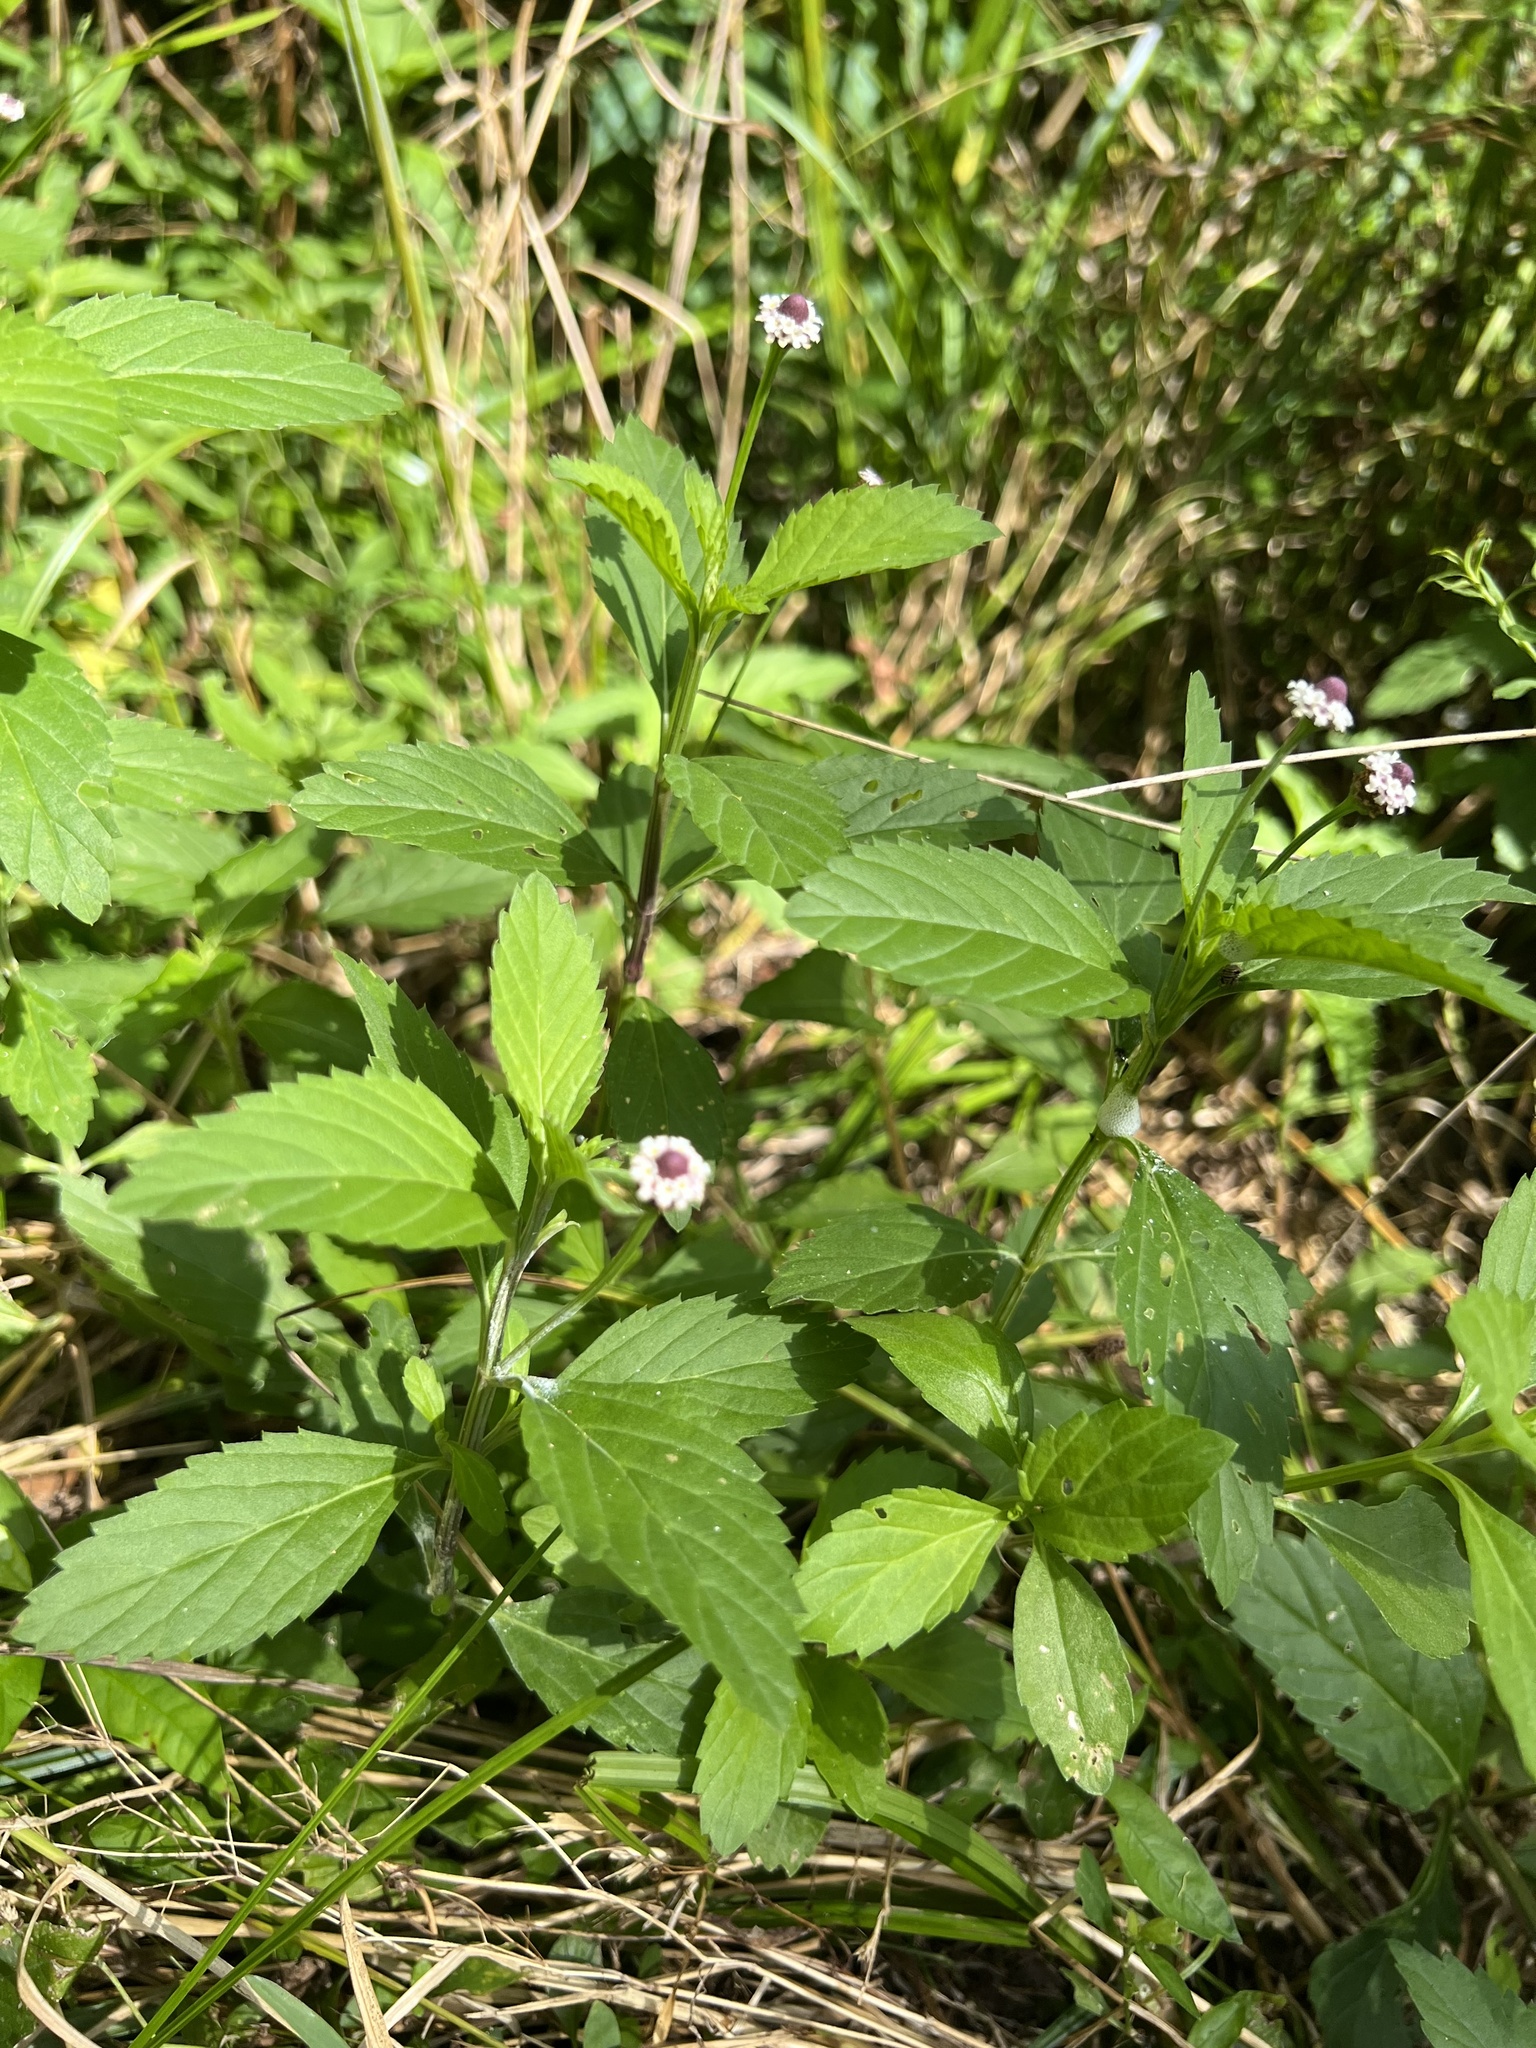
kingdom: Plantae
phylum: Tracheophyta
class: Magnoliopsida
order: Lamiales
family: Verbenaceae
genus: Phyla
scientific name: Phyla lanceolata
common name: Northern fogfruit
